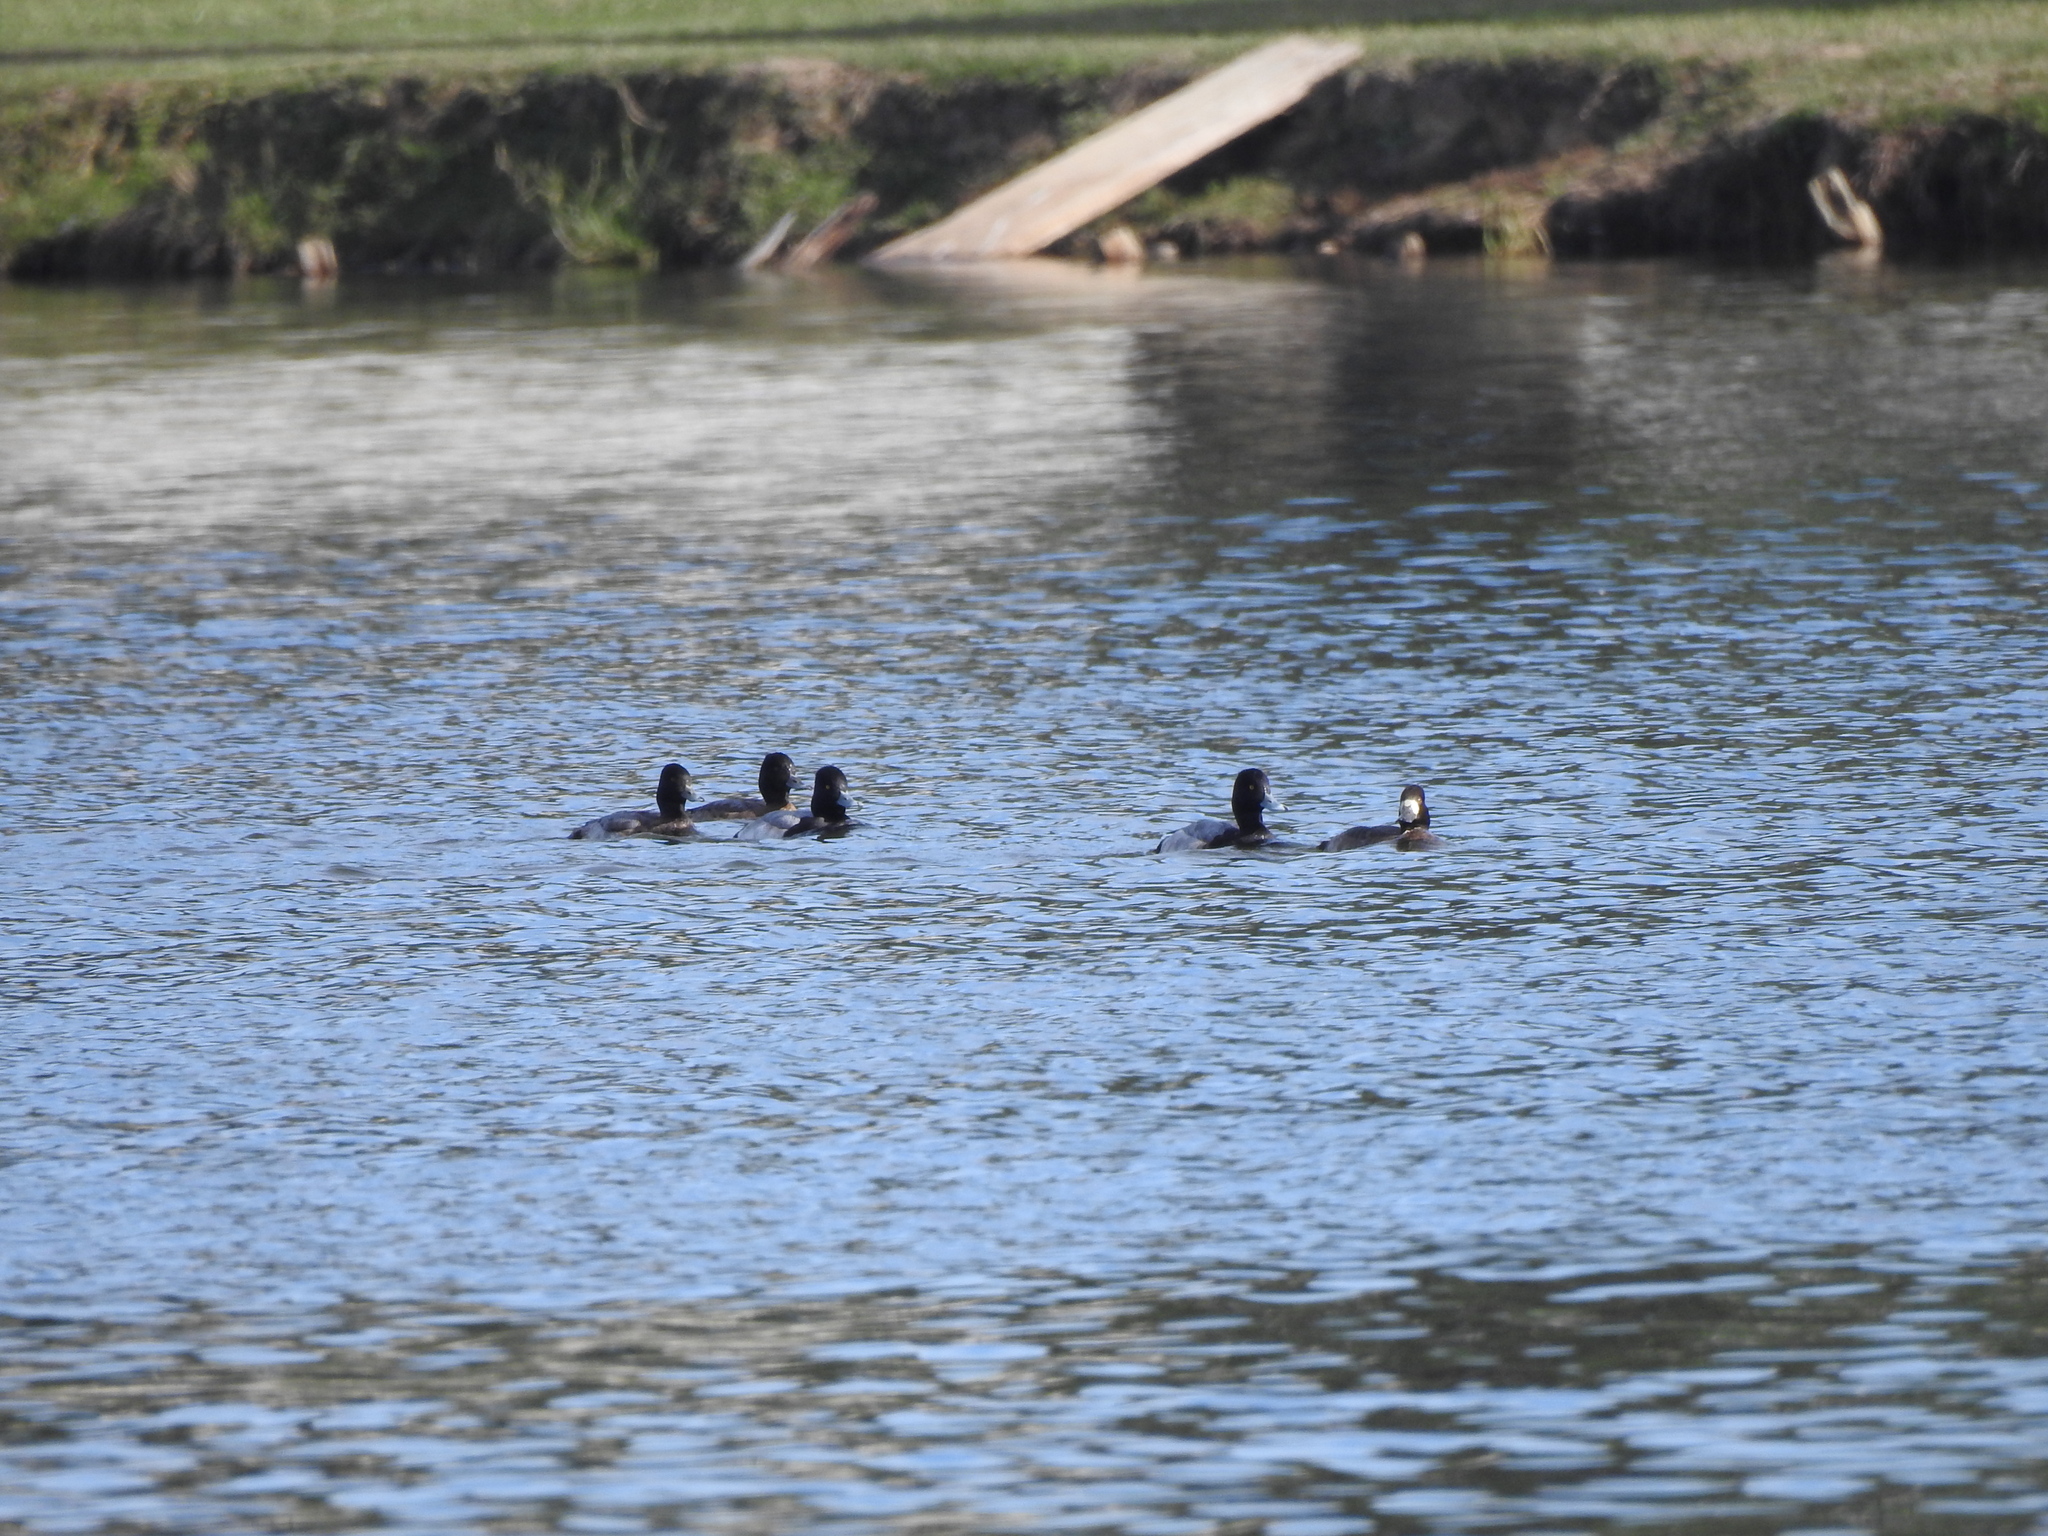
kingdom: Animalia
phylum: Chordata
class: Aves
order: Anseriformes
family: Anatidae
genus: Aythya
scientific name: Aythya affinis
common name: Lesser scaup
